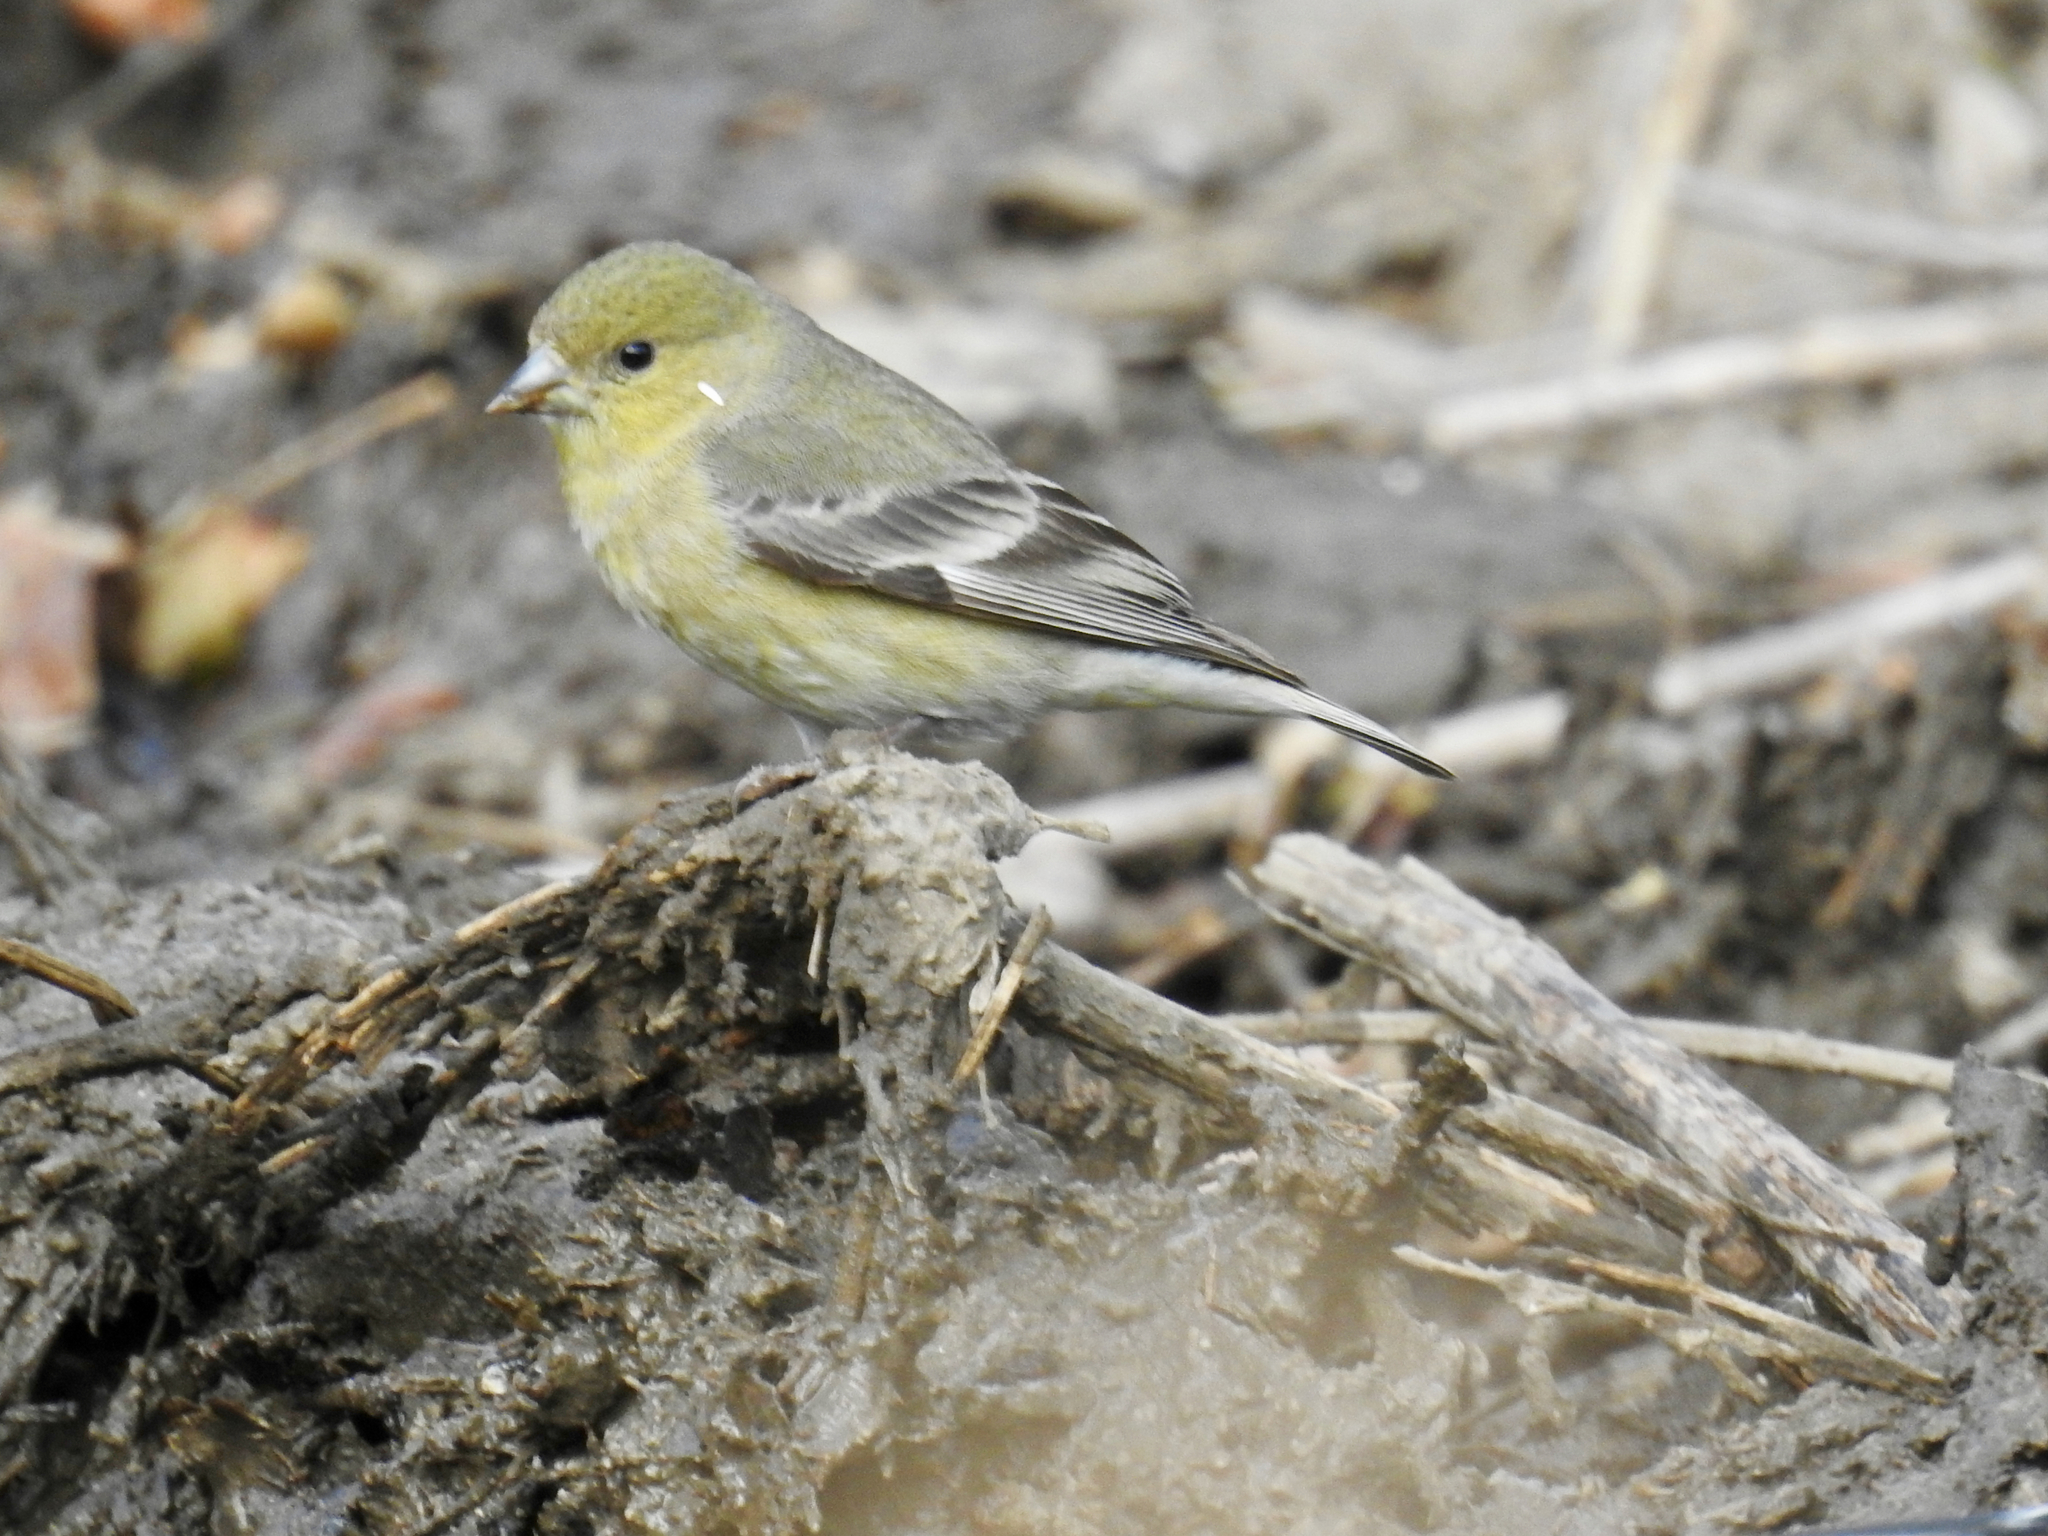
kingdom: Animalia
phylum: Chordata
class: Aves
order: Passeriformes
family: Fringillidae
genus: Spinus
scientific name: Spinus psaltria
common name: Lesser goldfinch
